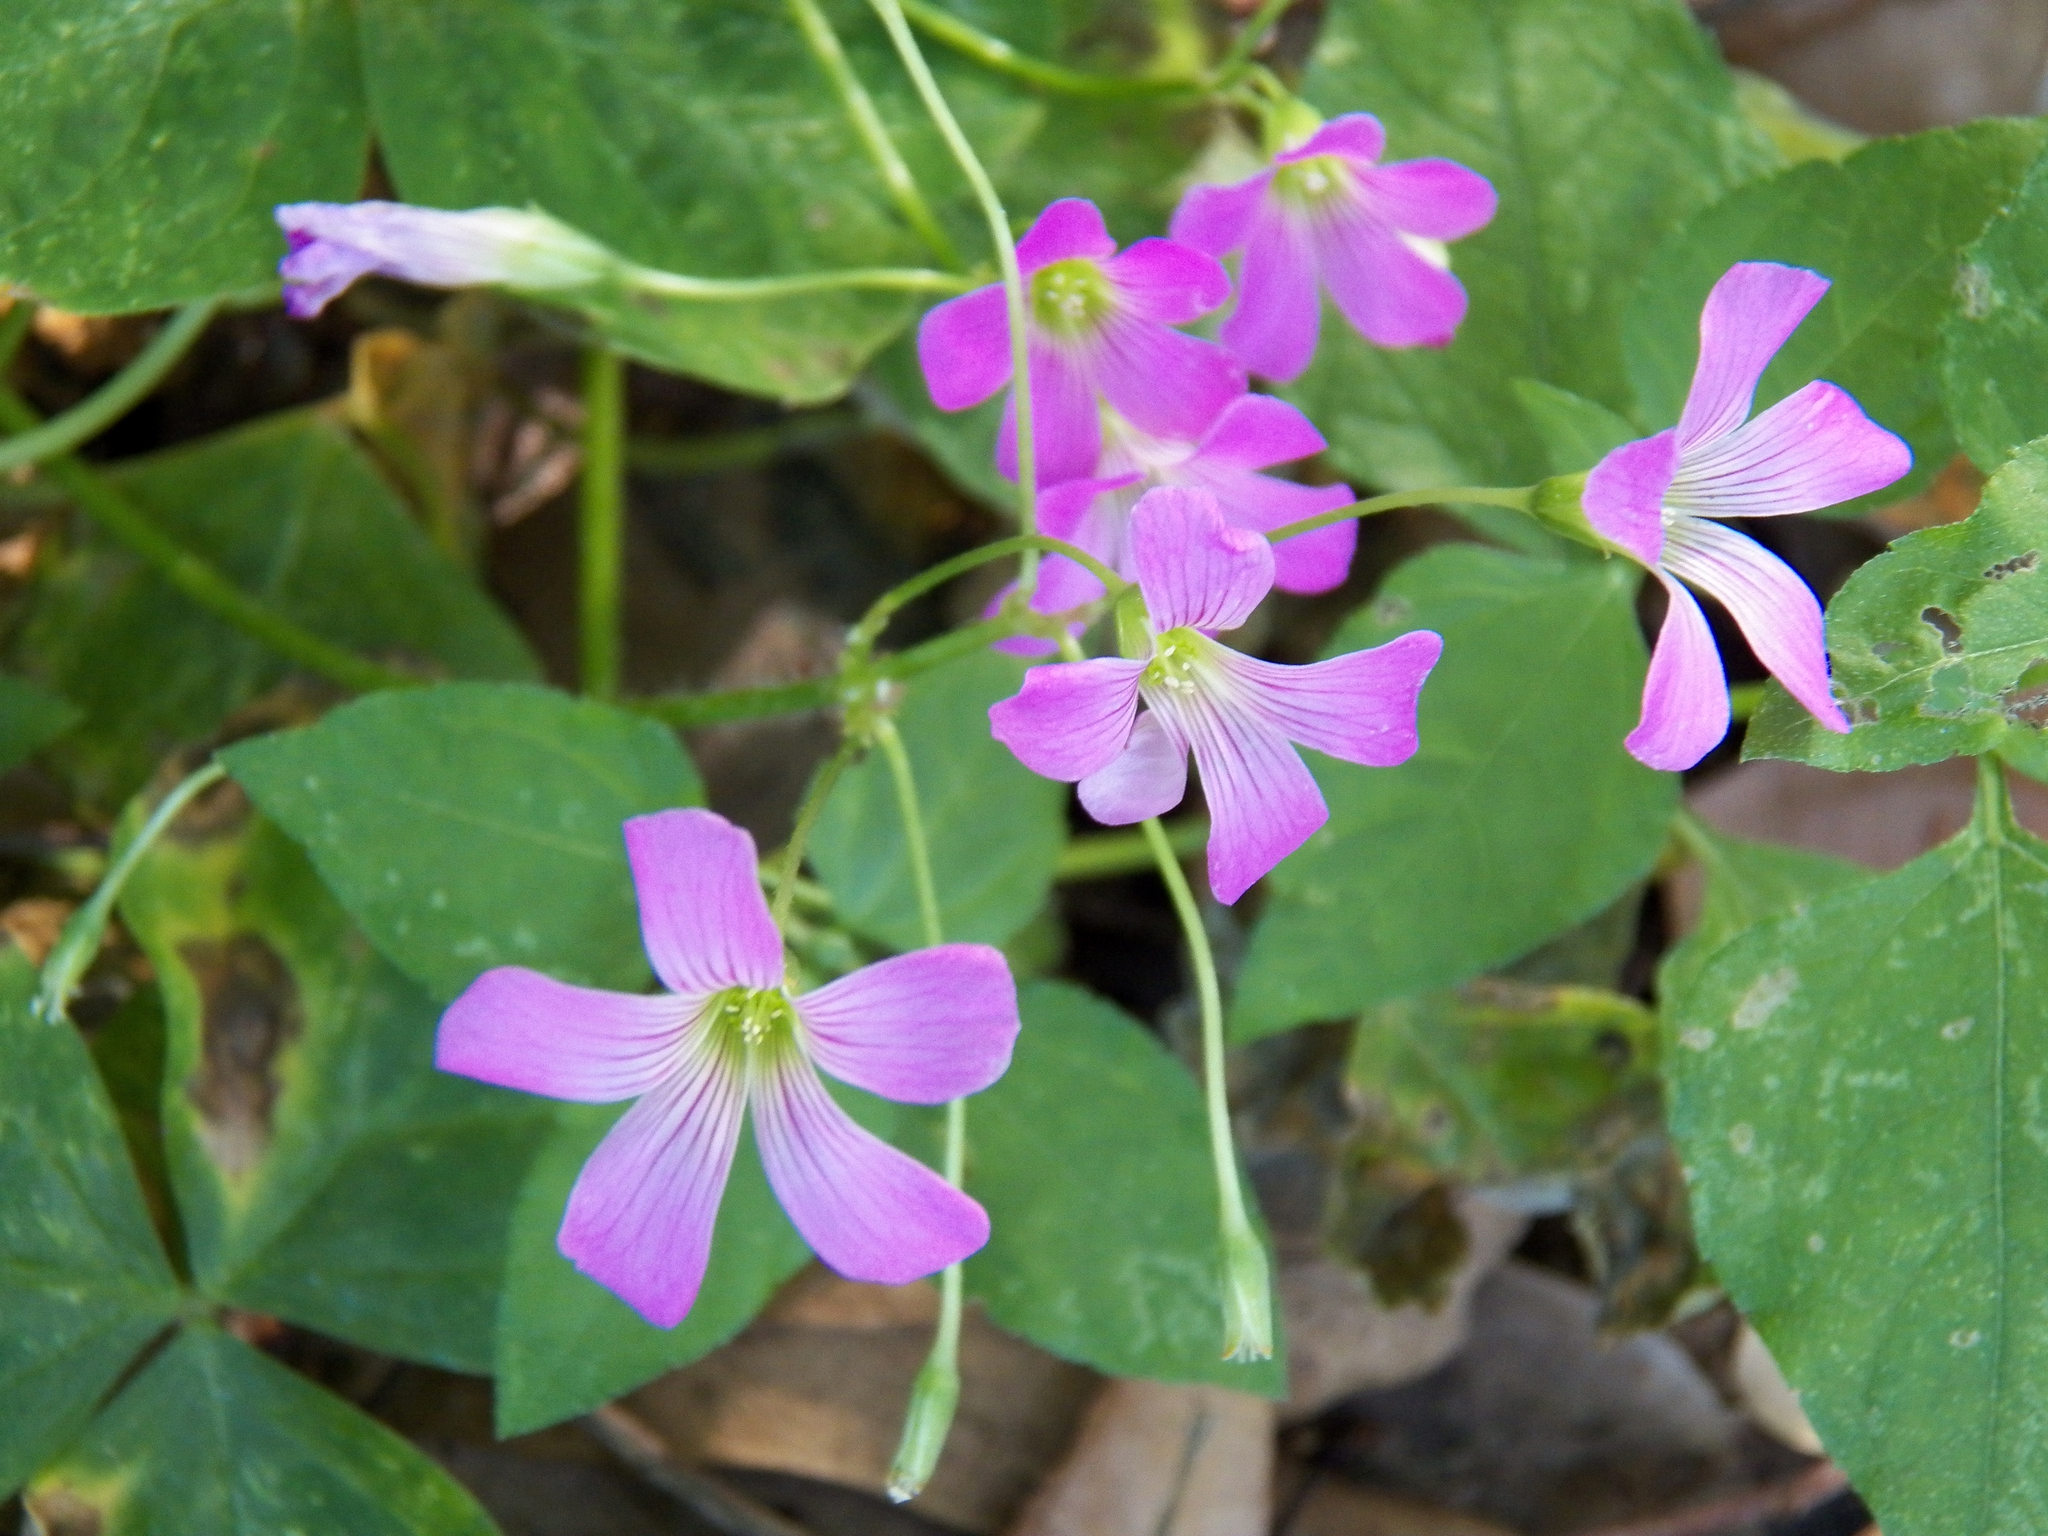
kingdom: Plantae
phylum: Tracheophyta
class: Magnoliopsida
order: Oxalidales
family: Oxalidaceae
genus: Oxalis
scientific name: Oxalis debilis
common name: Large-flowered pink-sorrel
